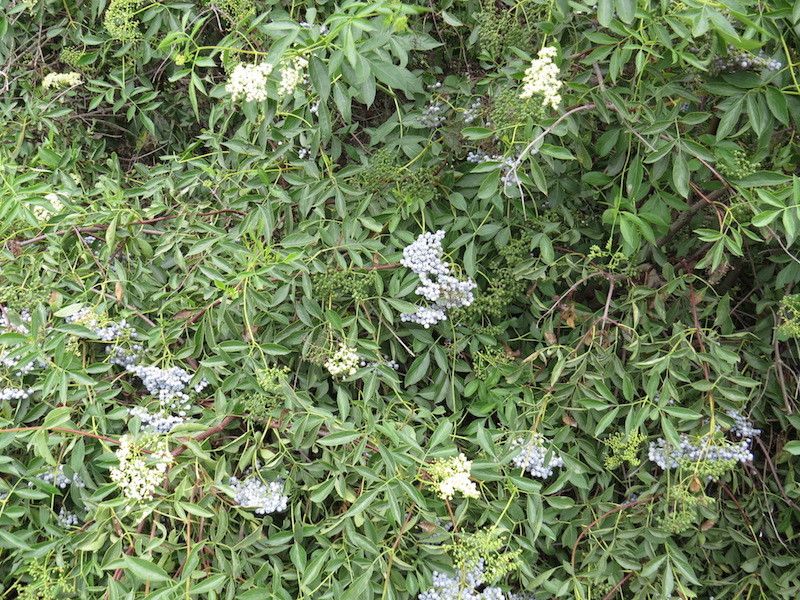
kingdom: Plantae
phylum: Tracheophyta
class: Magnoliopsida
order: Dipsacales
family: Viburnaceae
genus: Sambucus
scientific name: Sambucus cerulea
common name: Blue elder
